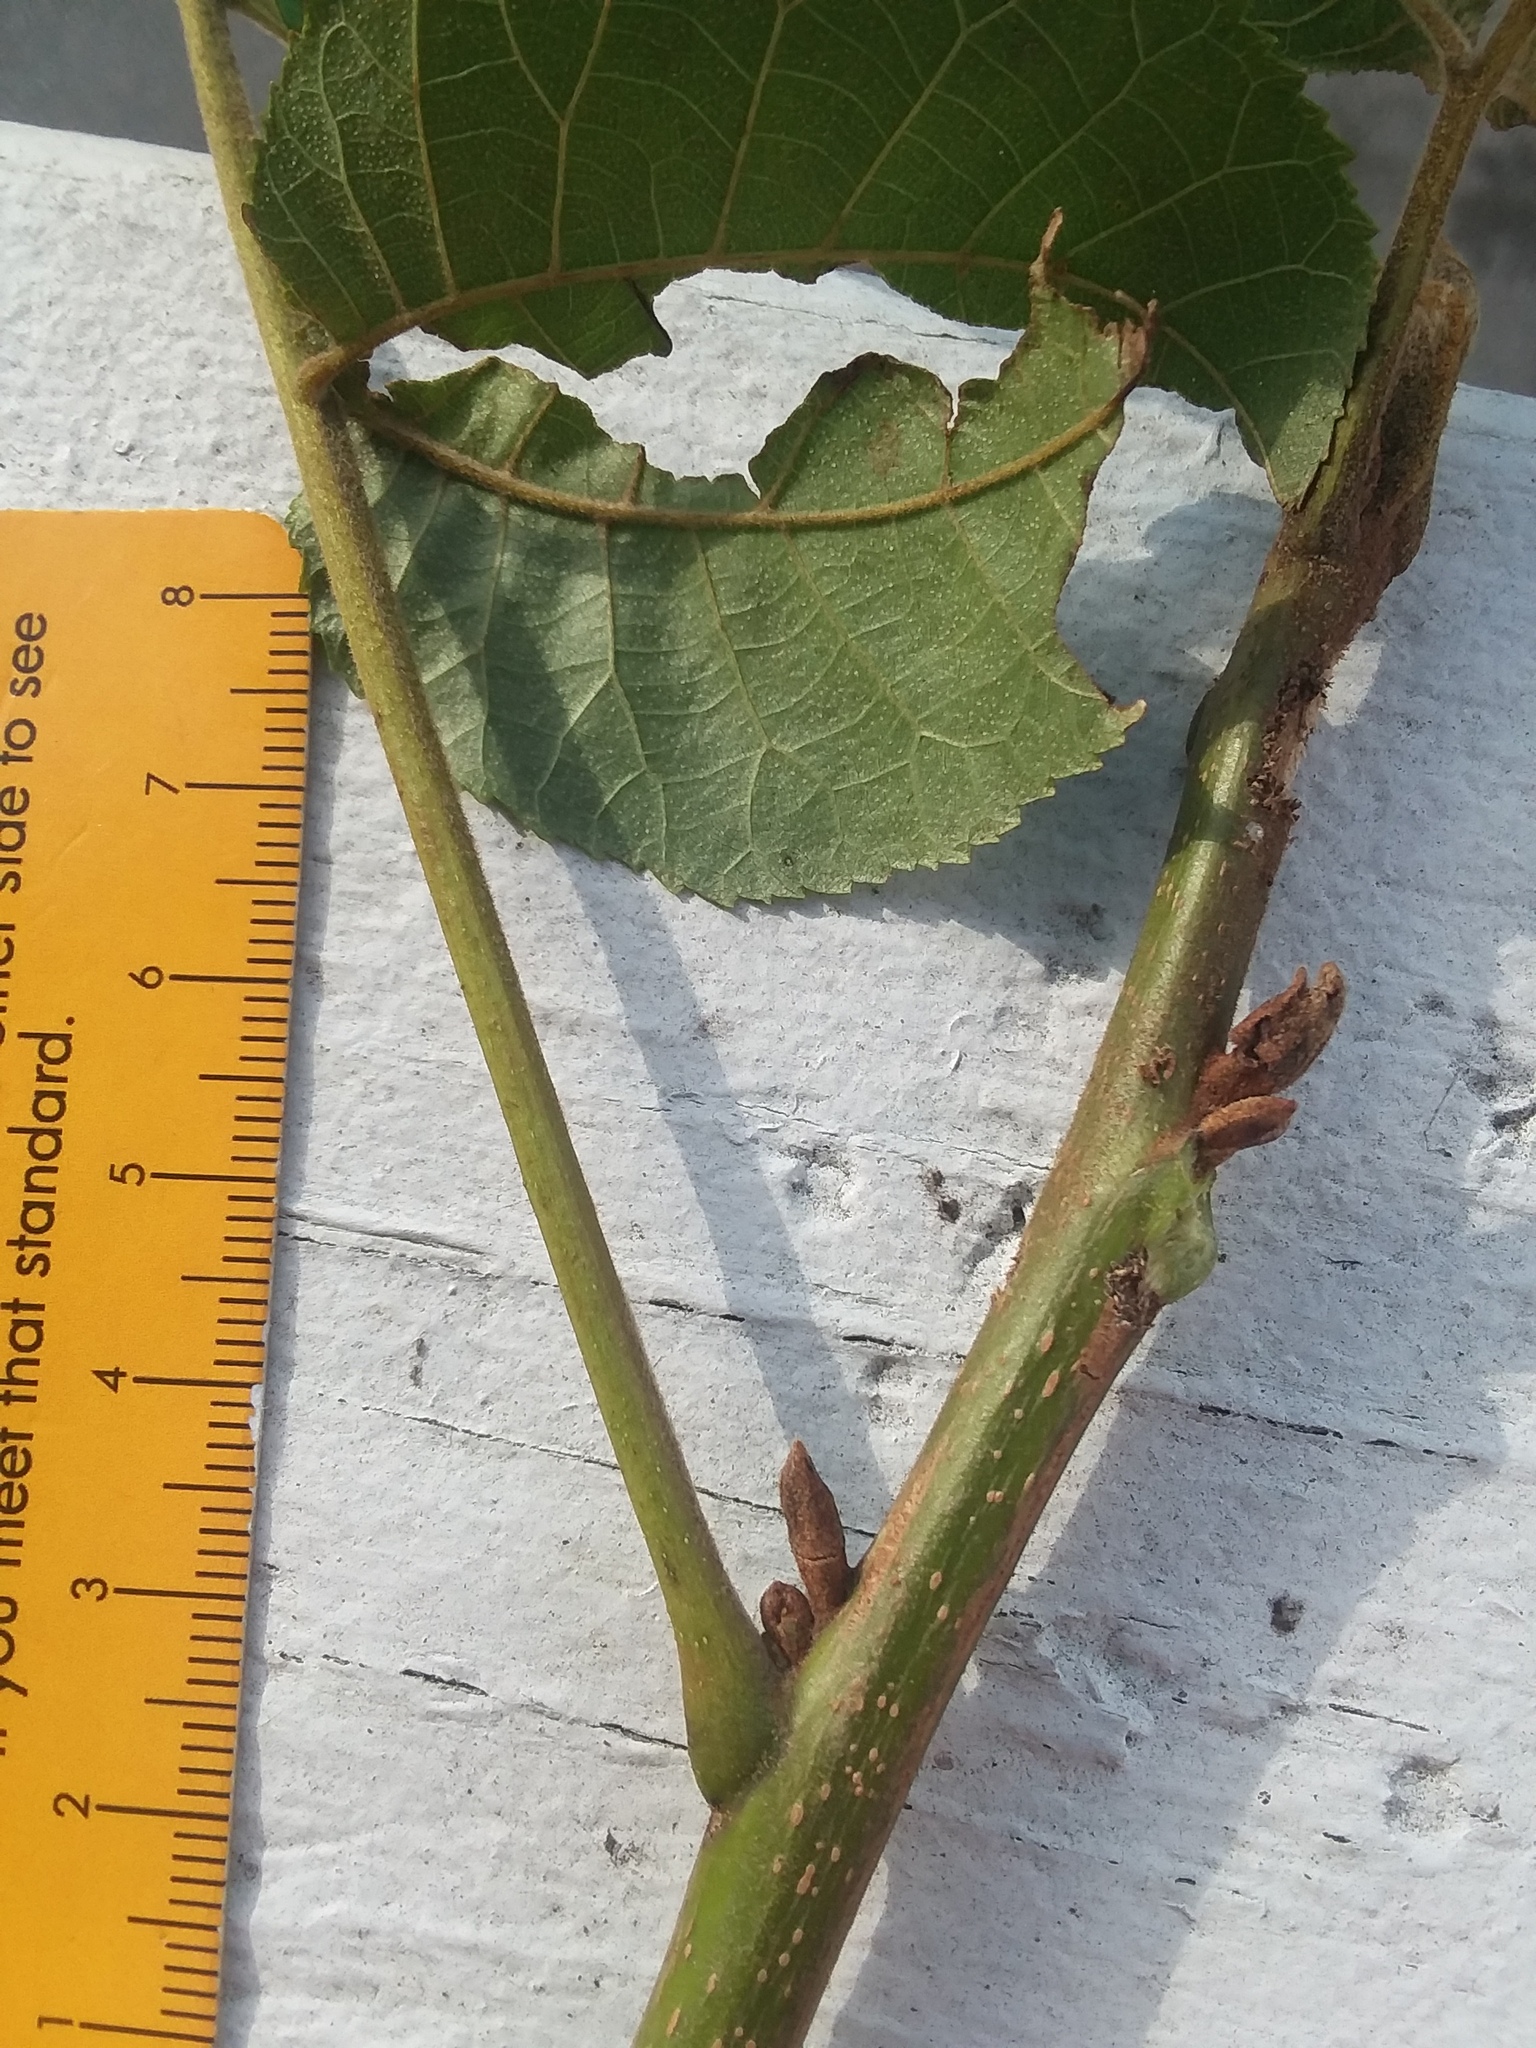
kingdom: Plantae
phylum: Tracheophyta
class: Magnoliopsida
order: Fagales
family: Juglandaceae
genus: Carya
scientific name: Carya cordiformis
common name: Bitternut hickory
